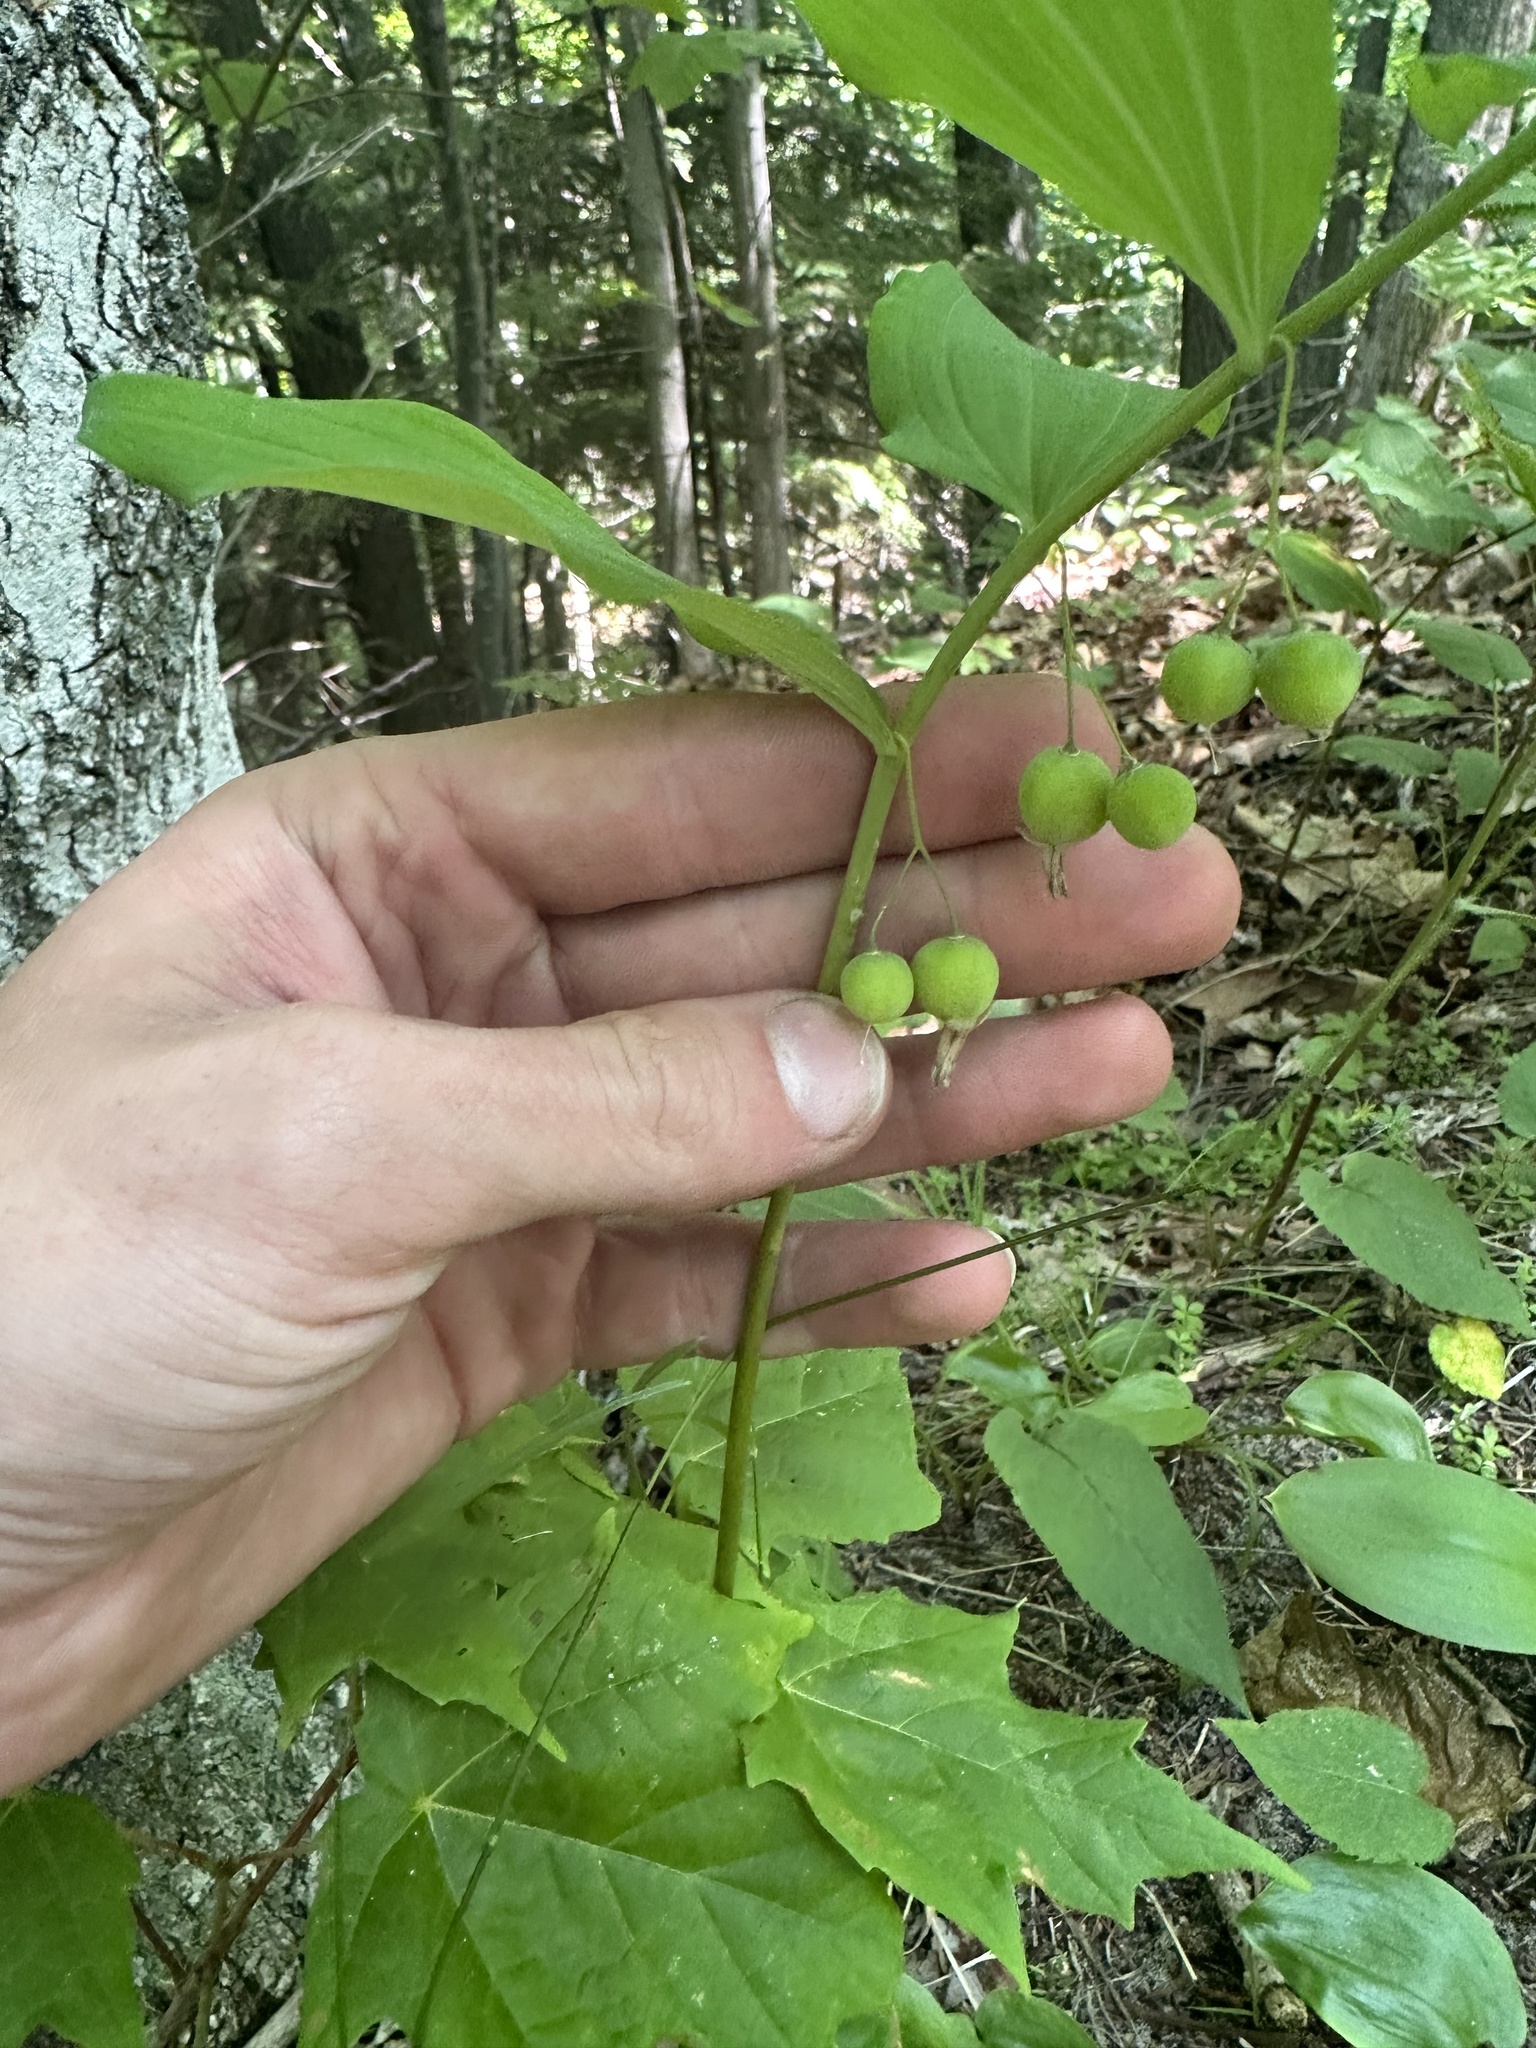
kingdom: Plantae
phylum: Tracheophyta
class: Liliopsida
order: Asparagales
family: Asparagaceae
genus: Polygonatum
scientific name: Polygonatum pubescens
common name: Downy solomon's seal
